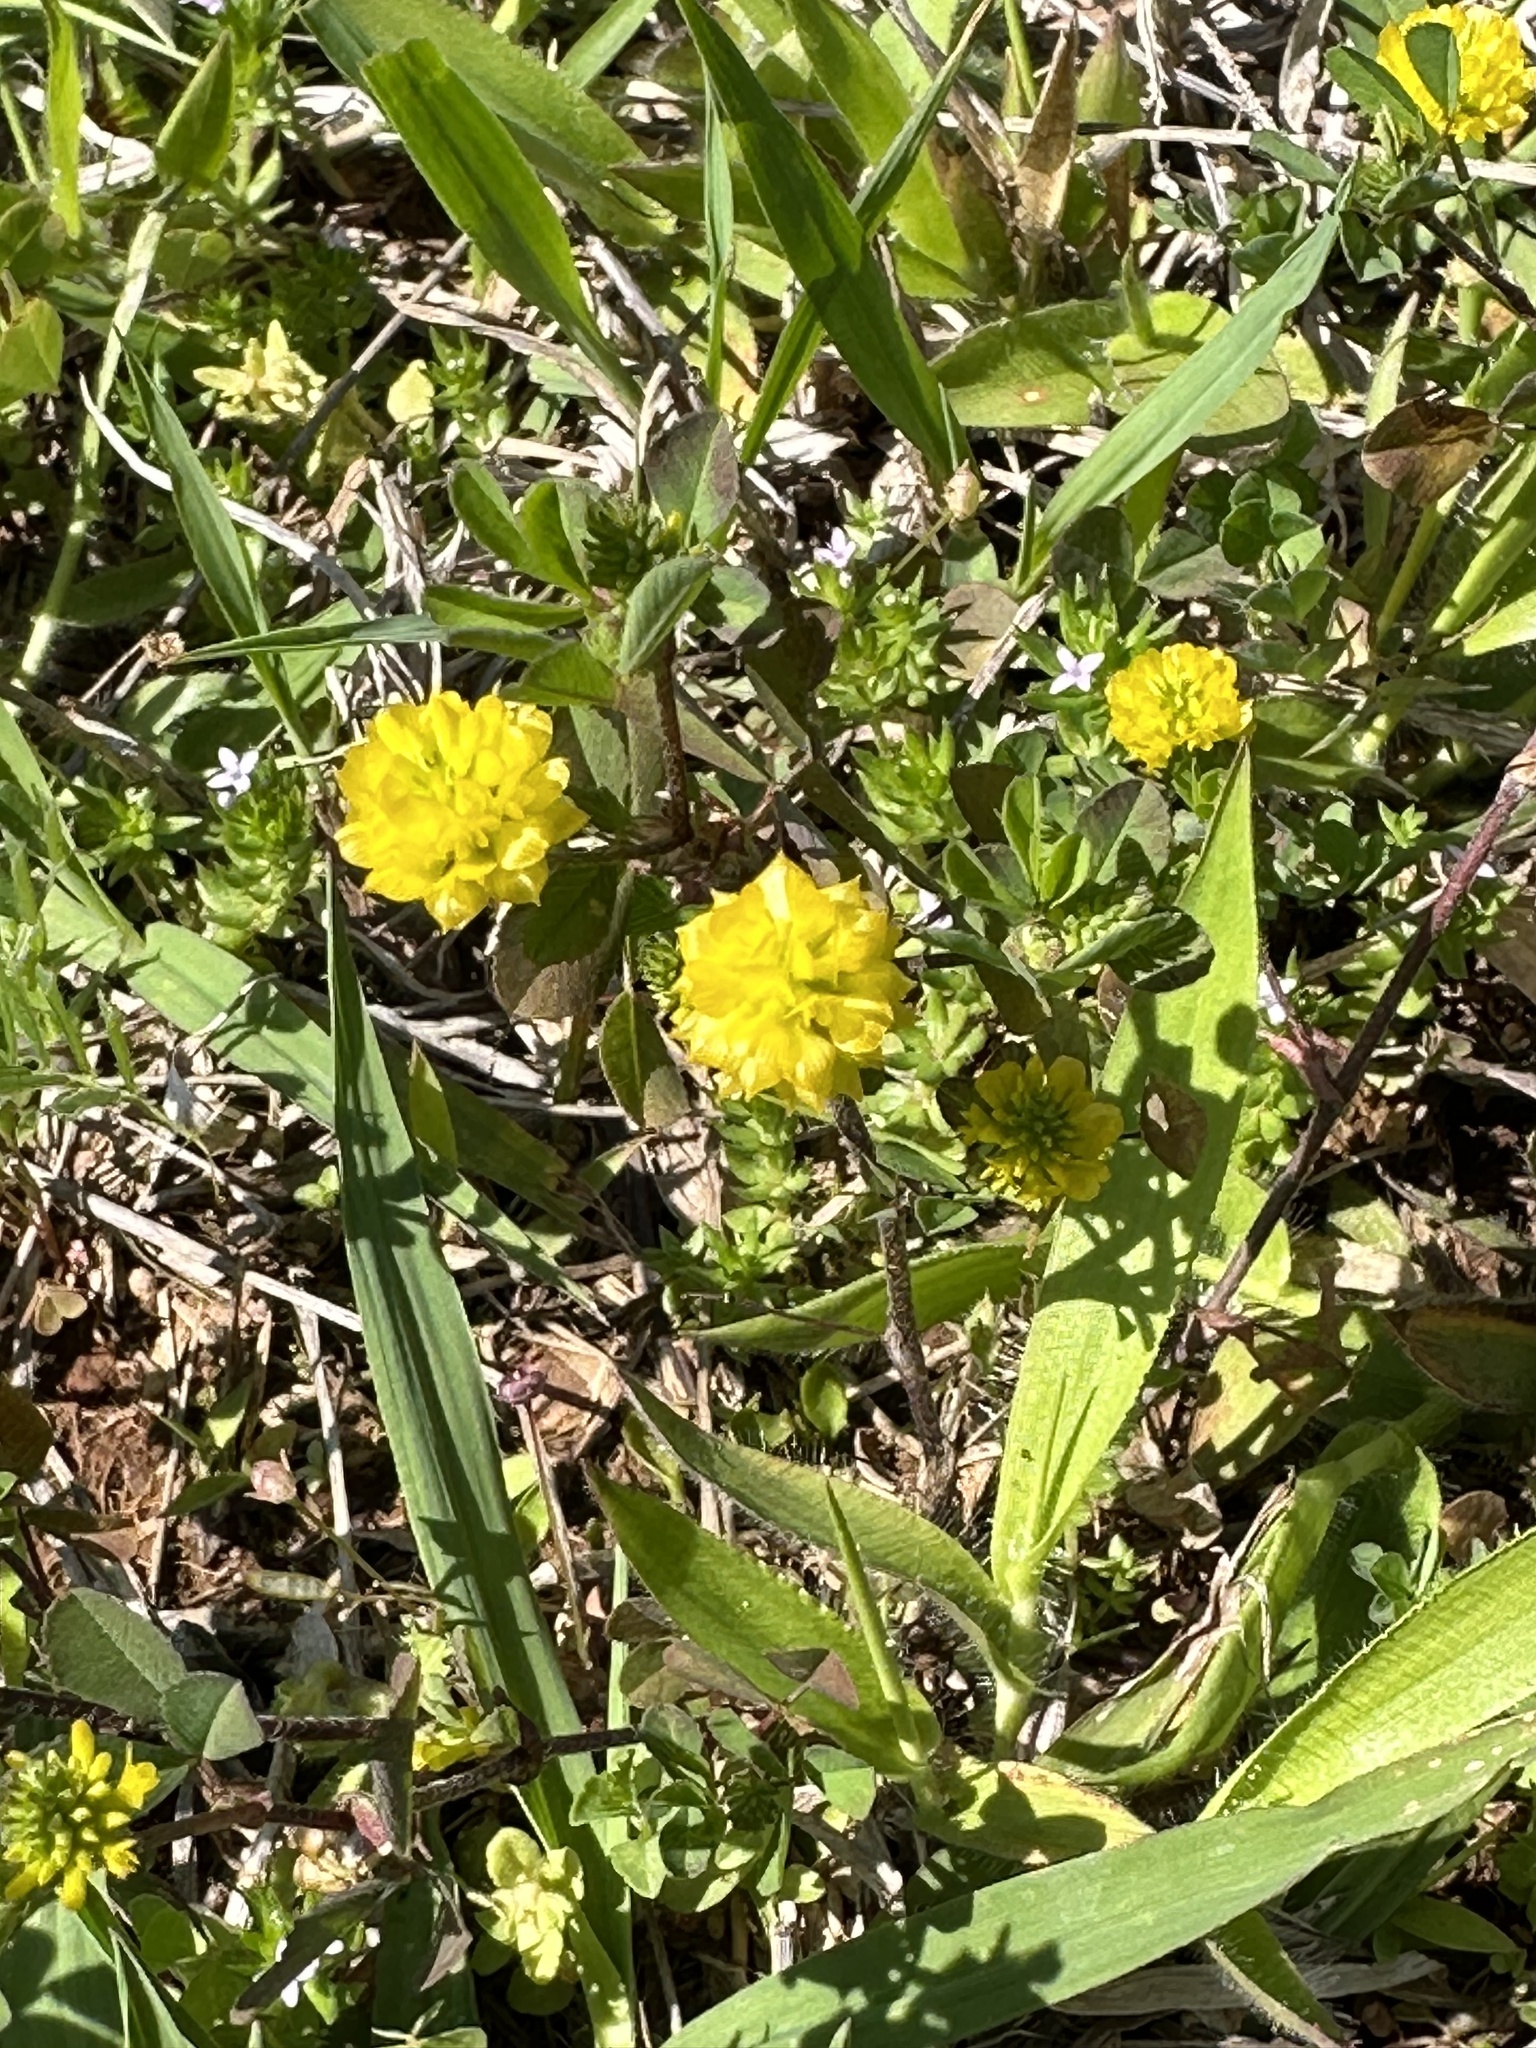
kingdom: Plantae
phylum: Tracheophyta
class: Magnoliopsida
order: Fabales
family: Fabaceae
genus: Trifolium
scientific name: Trifolium campestre
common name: Field clover
